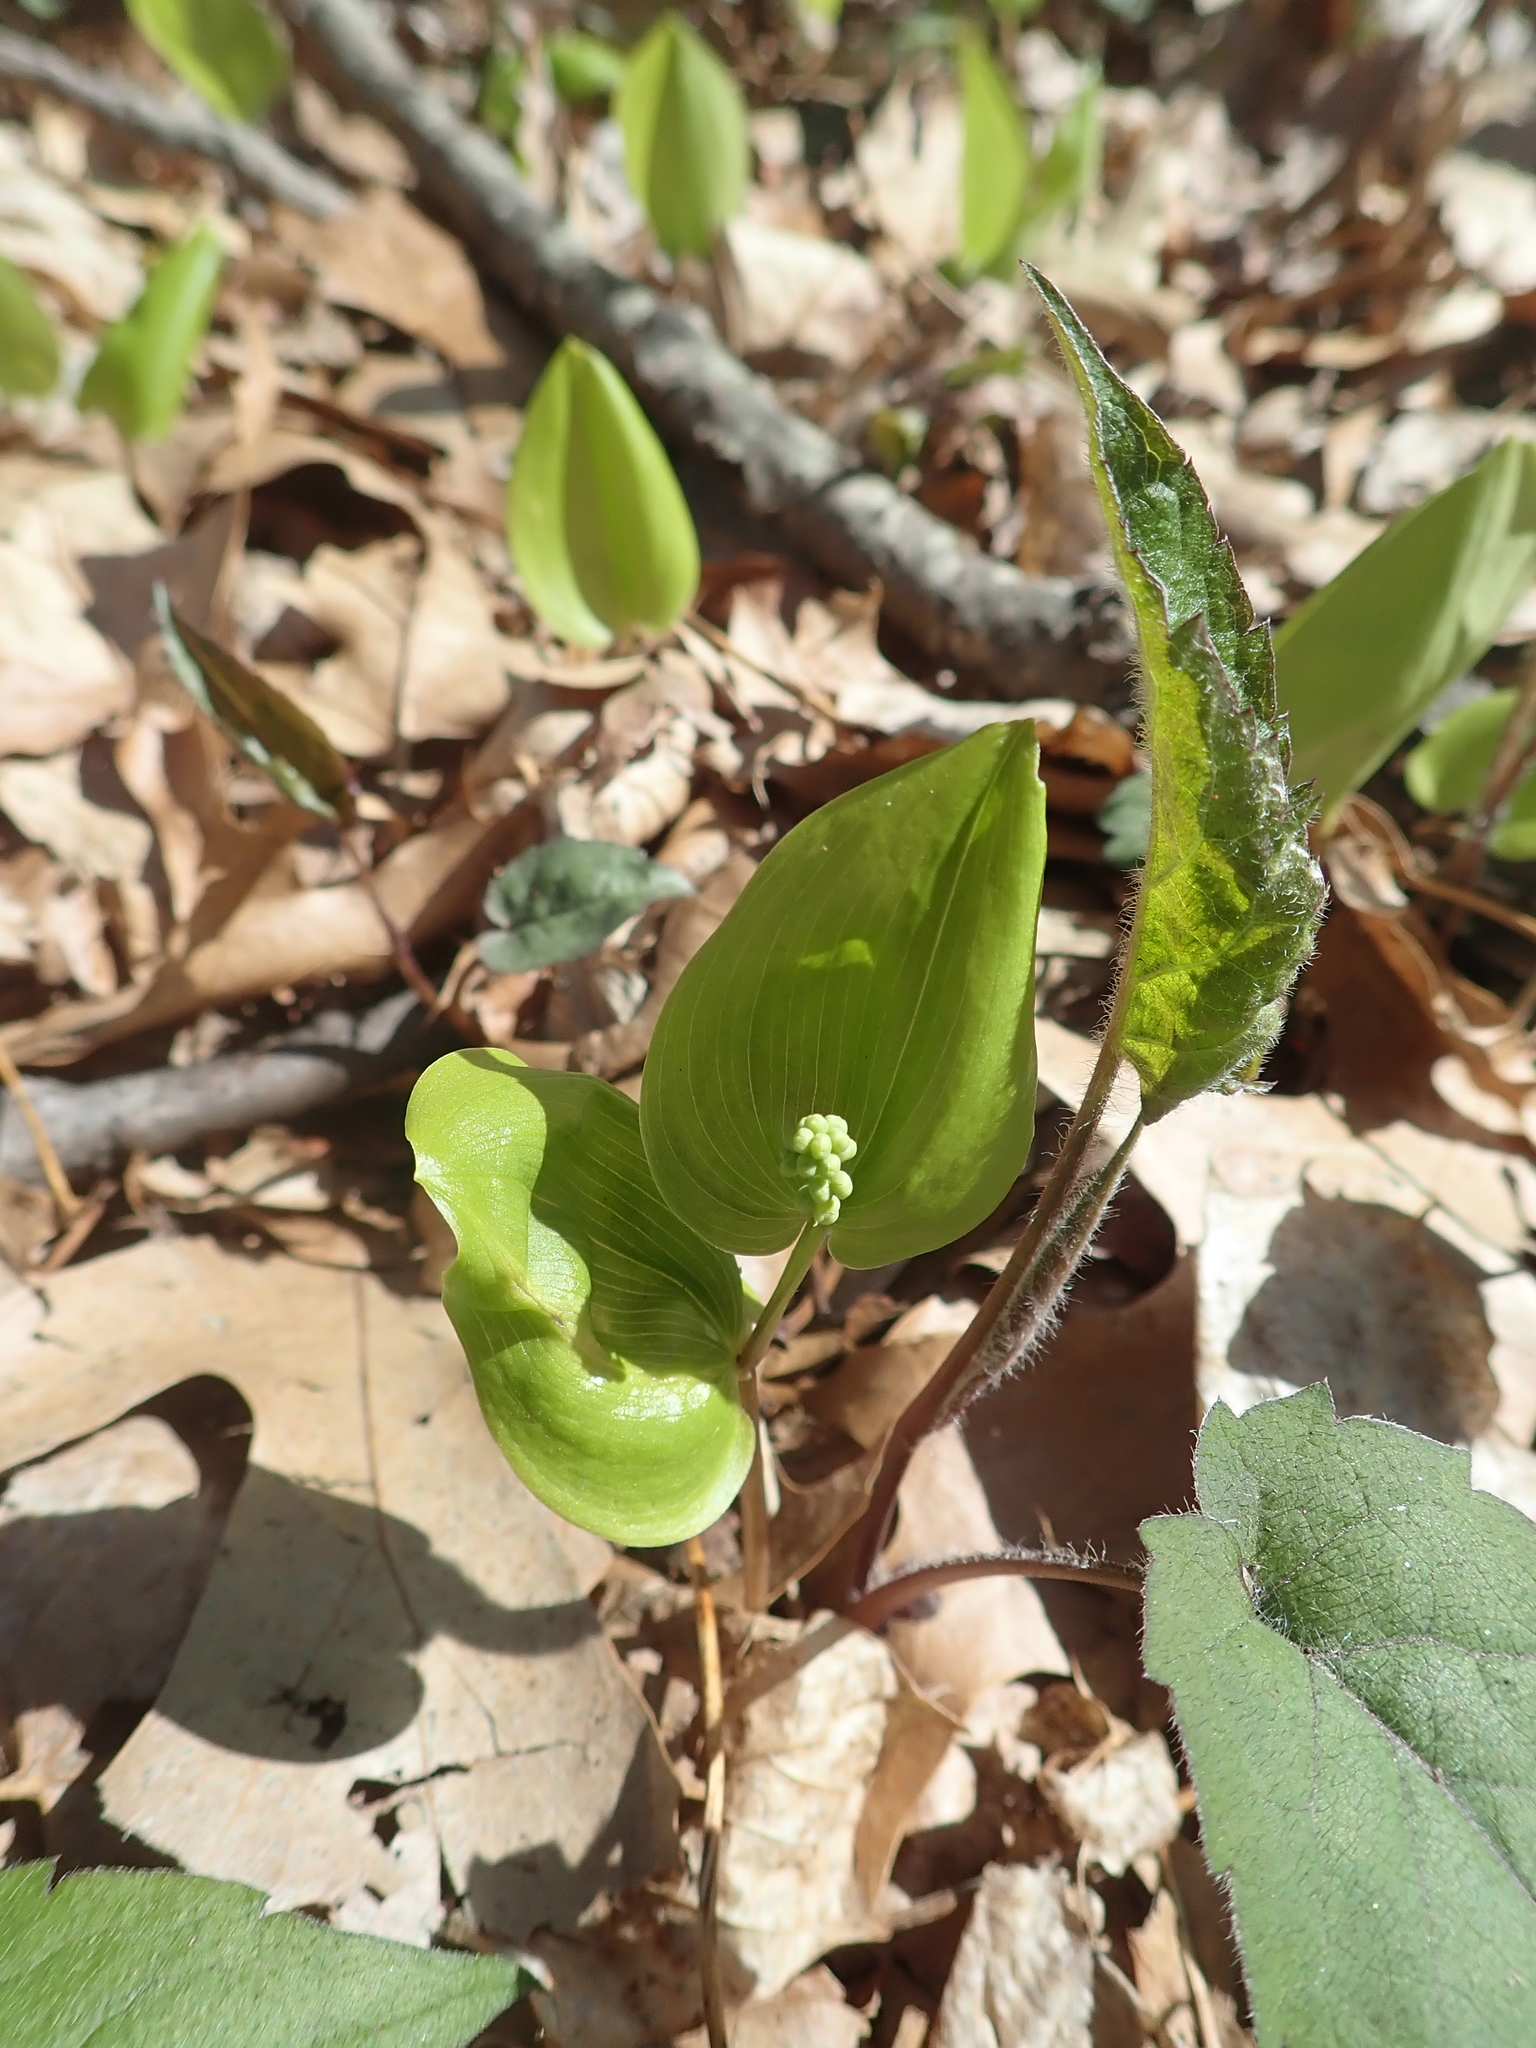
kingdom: Plantae
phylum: Tracheophyta
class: Liliopsida
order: Asparagales
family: Asparagaceae
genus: Maianthemum
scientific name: Maianthemum canadense
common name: False lily-of-the-valley
